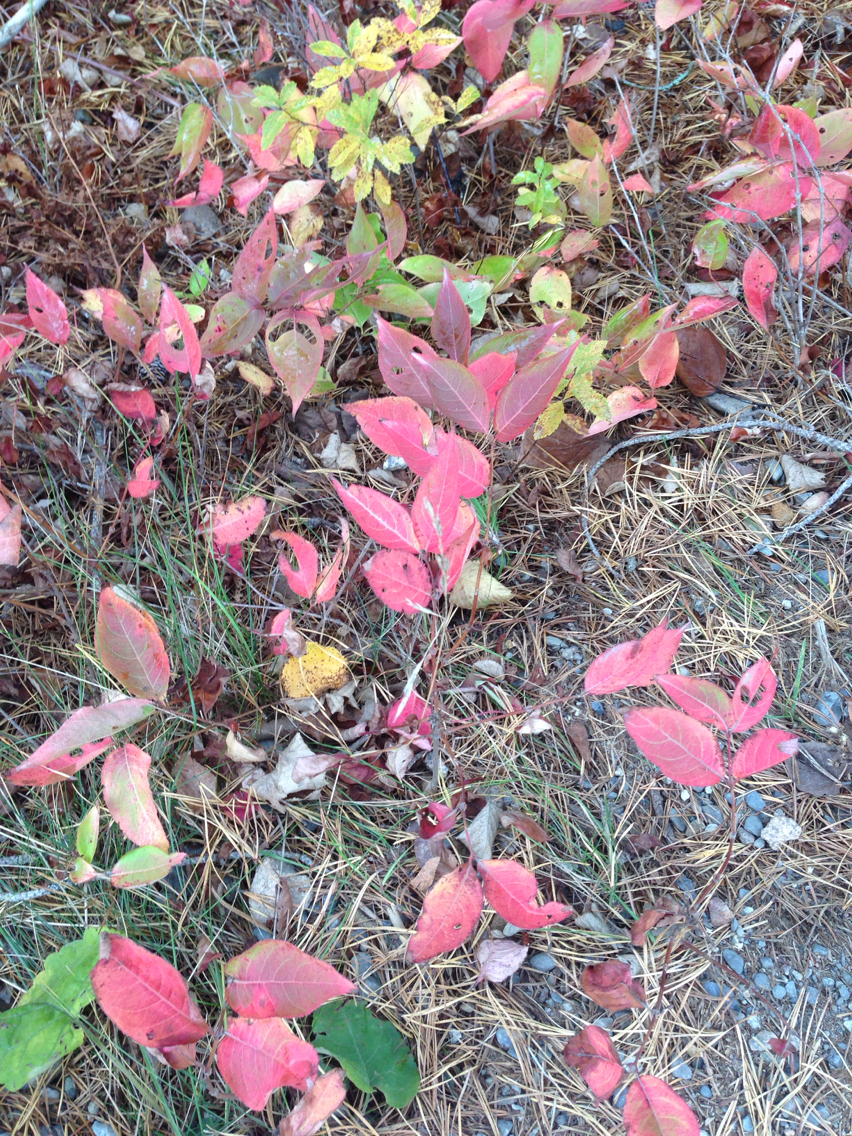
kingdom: Plantae
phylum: Tracheophyta
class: Magnoliopsida
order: Dipsacales
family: Viburnaceae
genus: Viburnum
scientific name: Viburnum cassinoides
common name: Swamp haw
